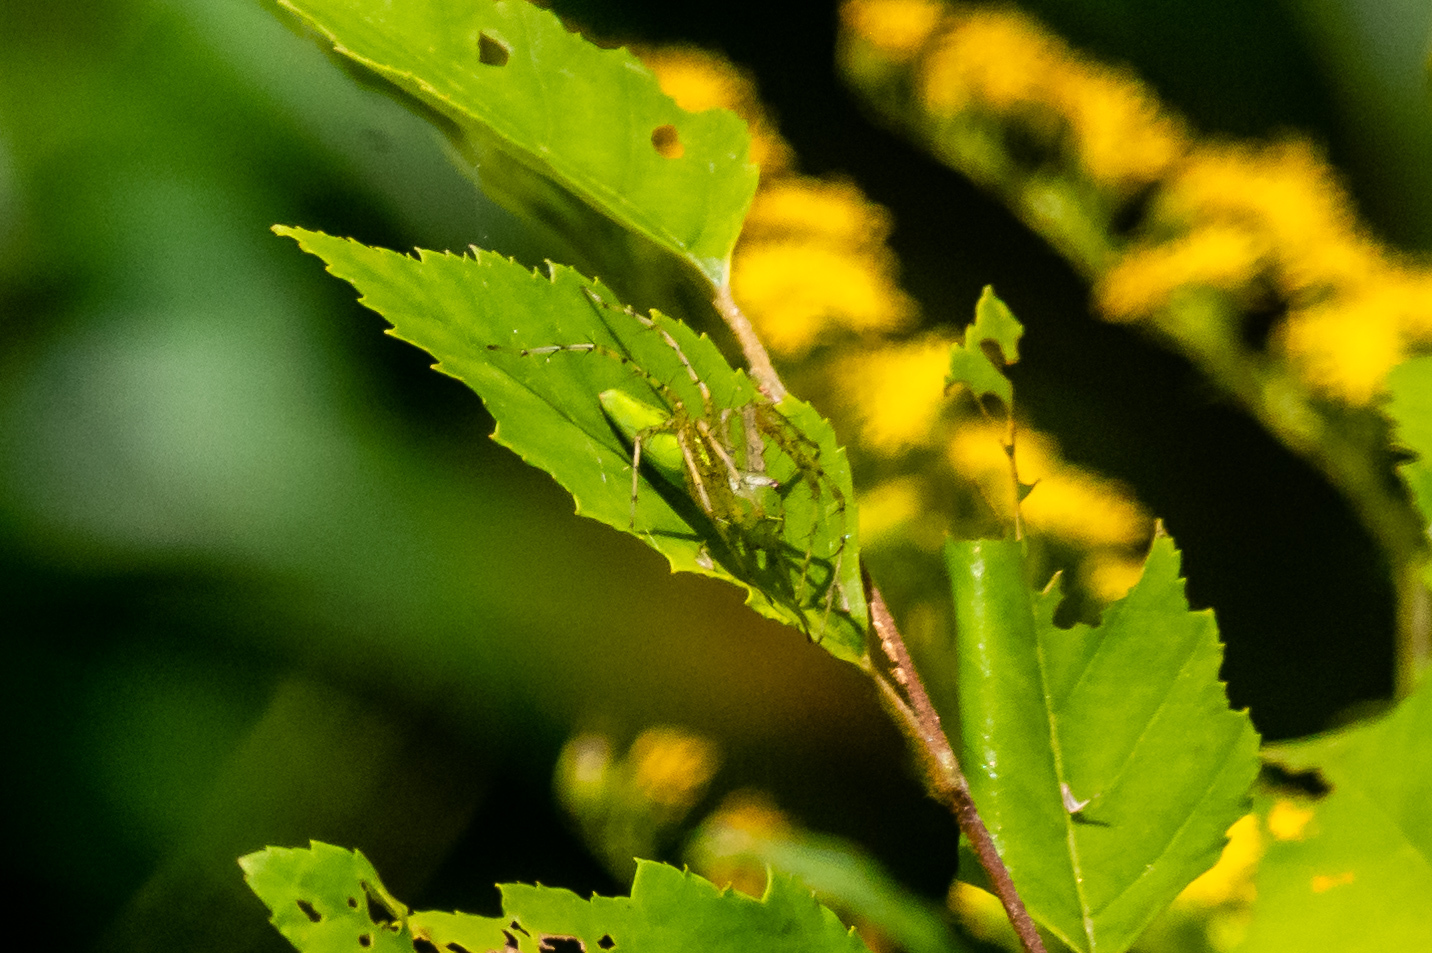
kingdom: Animalia
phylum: Arthropoda
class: Arachnida
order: Araneae
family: Oxyopidae
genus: Peucetia
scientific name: Peucetia viridans
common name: Lynx spiders
